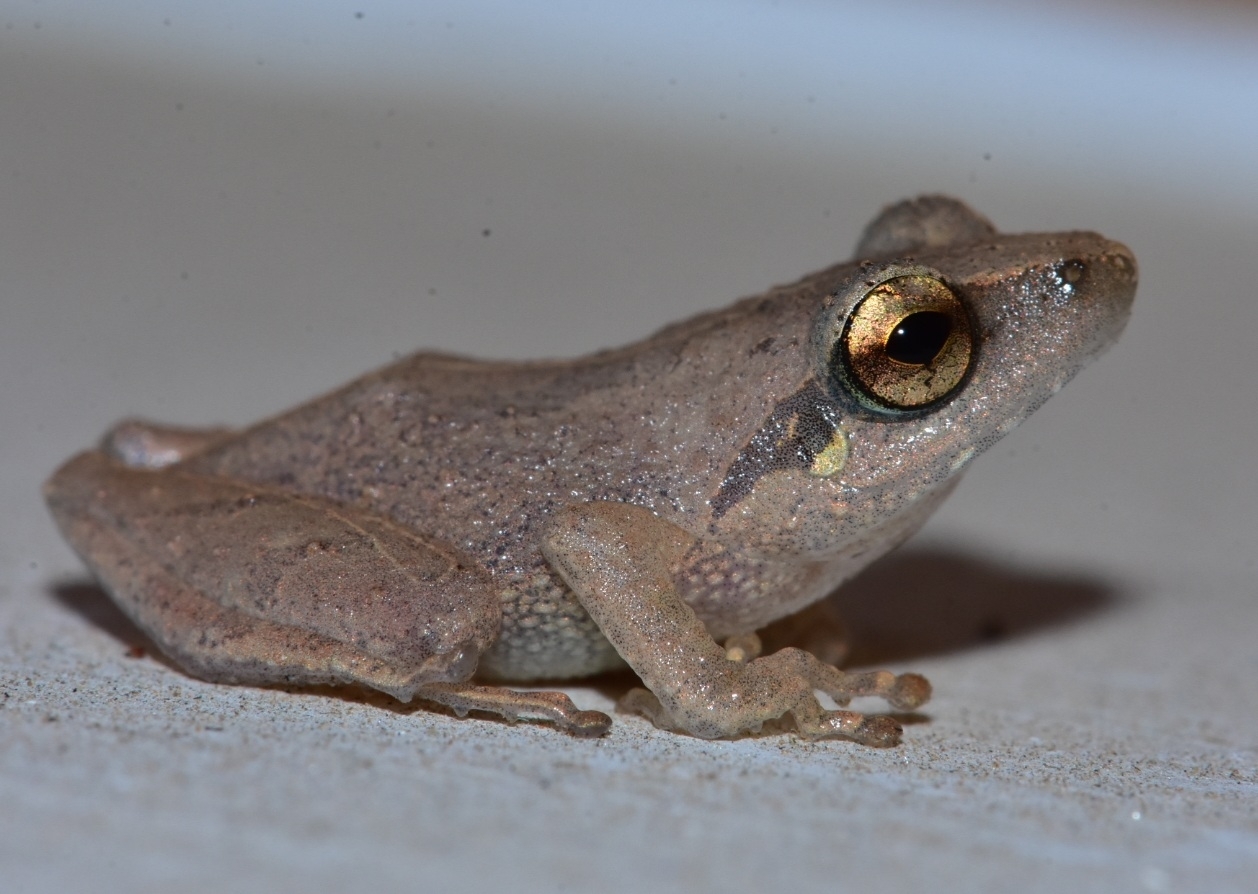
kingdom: Animalia
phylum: Chordata
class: Amphibia
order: Anura
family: Rhacophoridae
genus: Pseudophilautus
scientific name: Pseudophilautus wynaadensis
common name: Dark-eared bush frog
